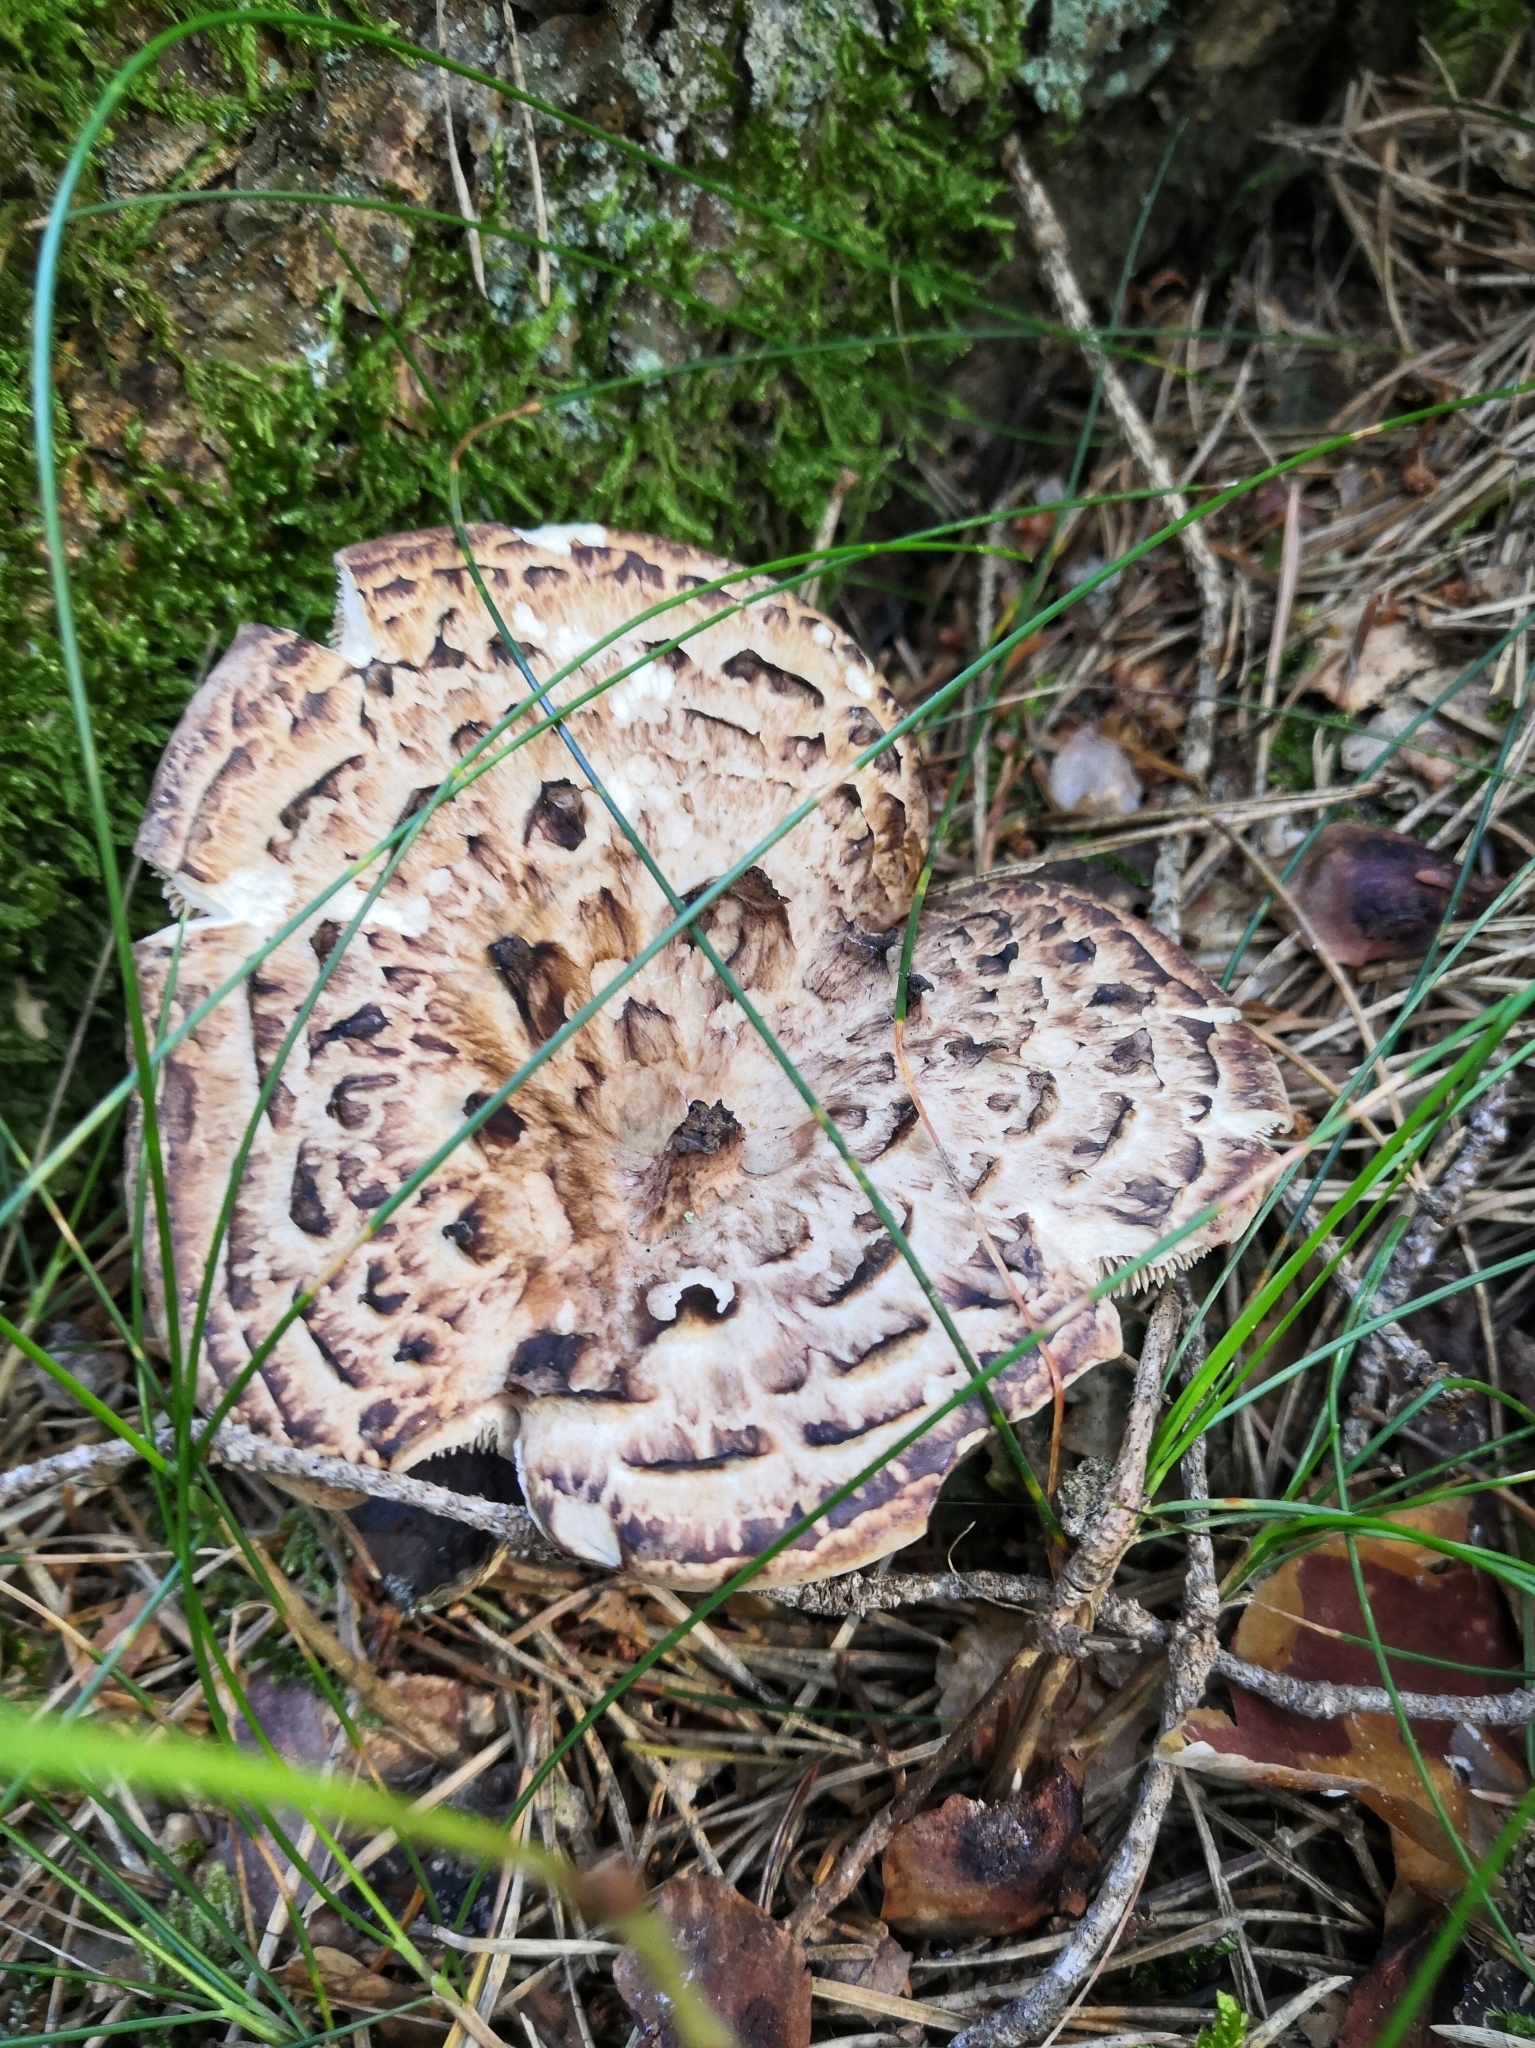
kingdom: Fungi
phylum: Basidiomycota
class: Agaricomycetes
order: Thelephorales
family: Bankeraceae
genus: Sarcodon
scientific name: Sarcodon imbricatus
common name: Shingled hedgehog
